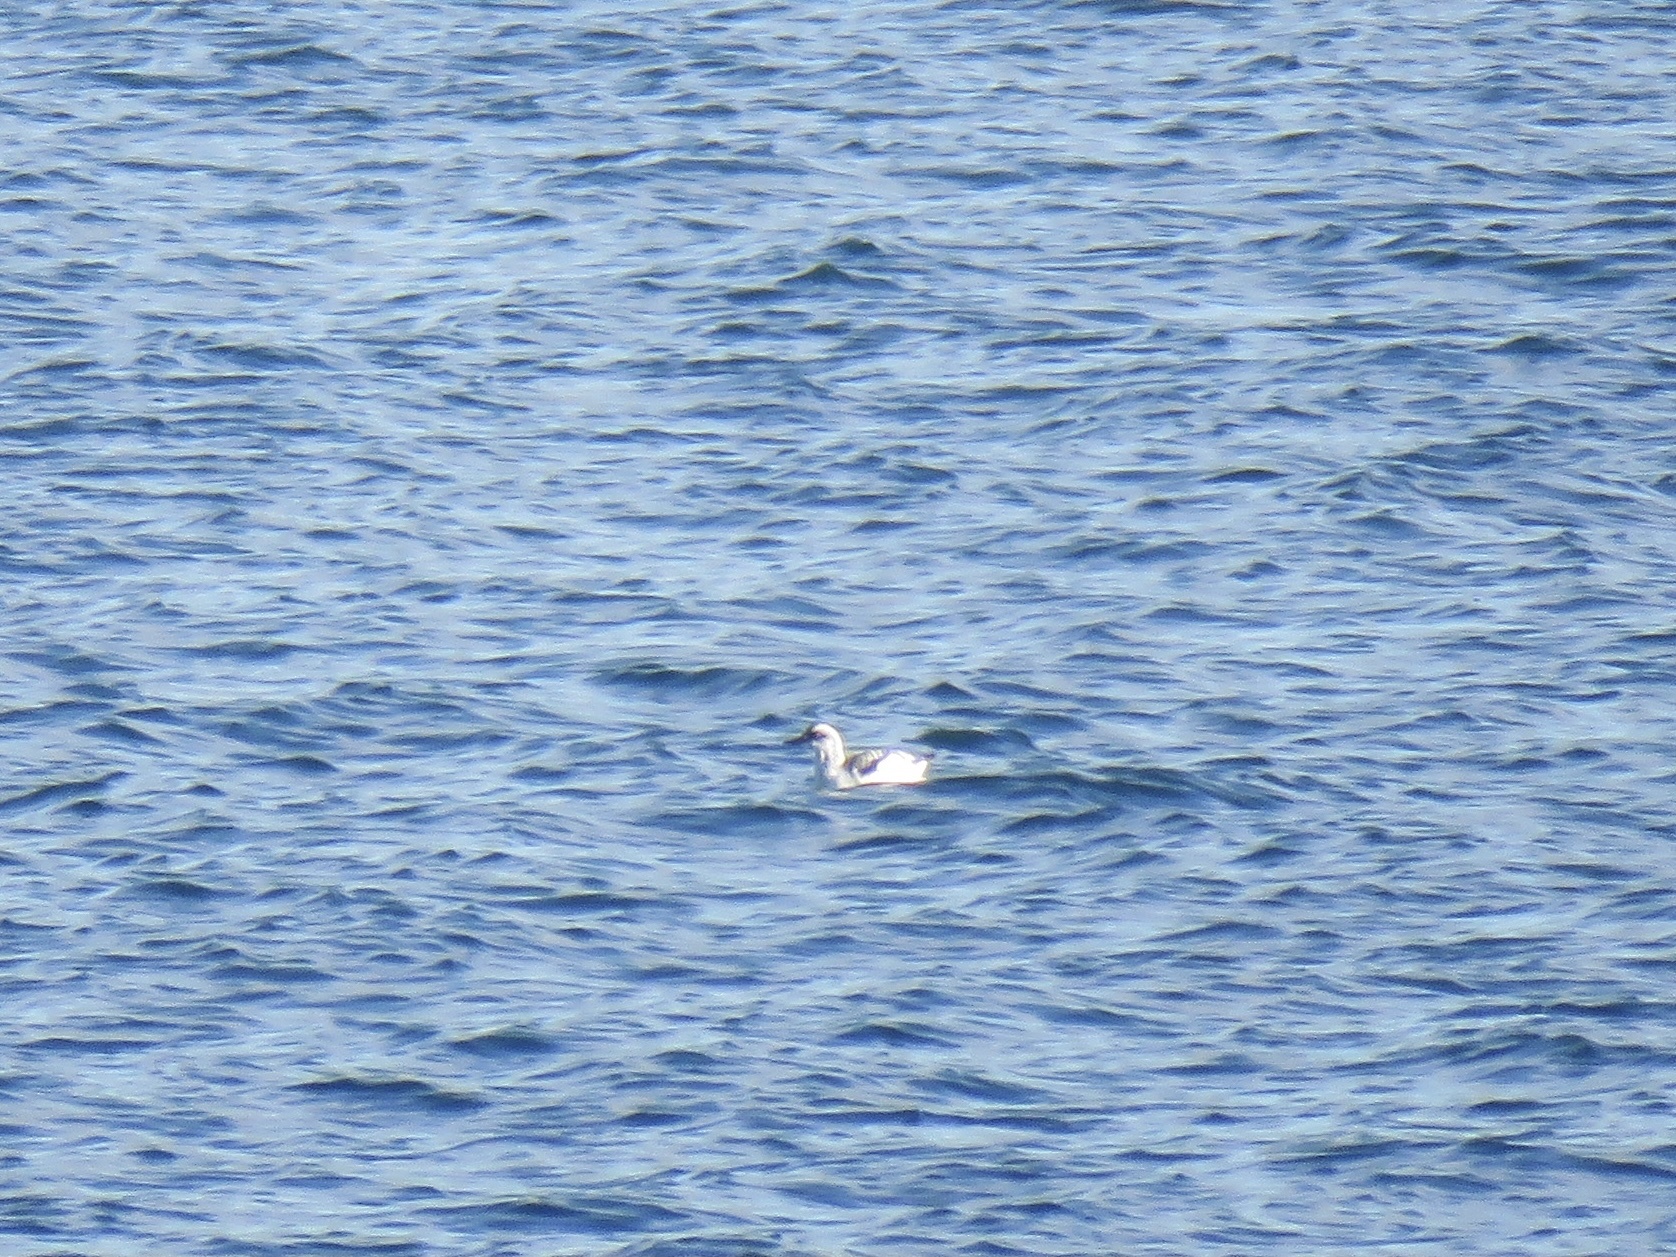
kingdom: Animalia
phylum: Chordata
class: Aves
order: Charadriiformes
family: Alcidae
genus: Cepphus
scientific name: Cepphus columba
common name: Pigeon guillemot
